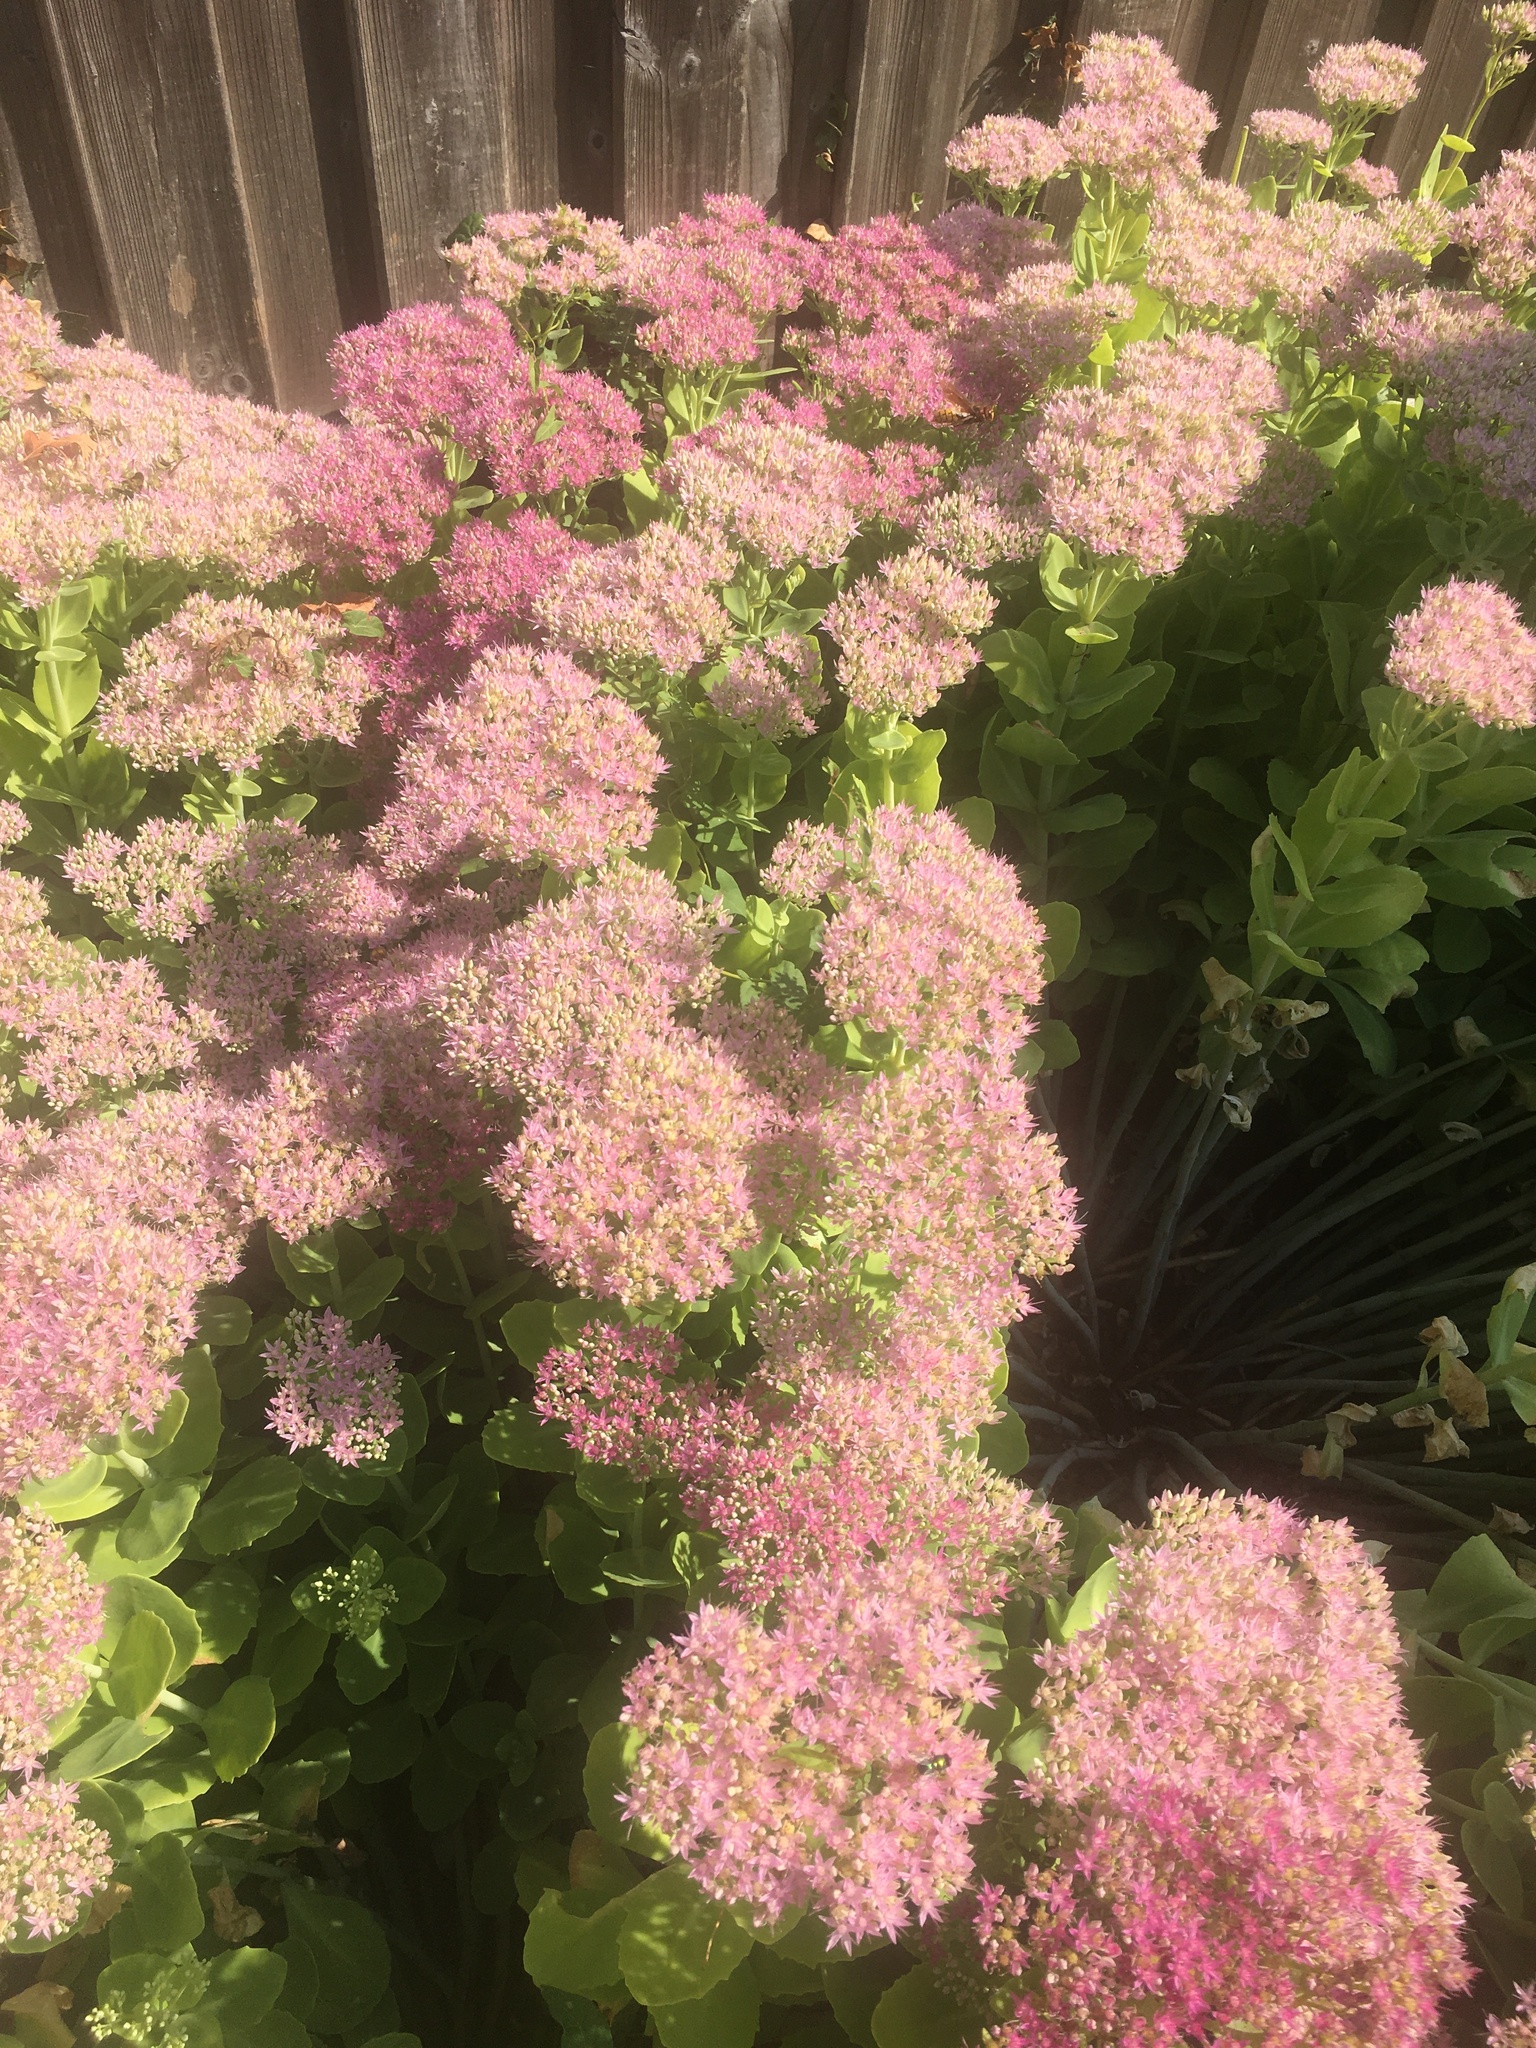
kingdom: Animalia
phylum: Arthropoda
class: Insecta
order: Hymenoptera
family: Vespidae
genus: Vespa
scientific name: Vespa crabro
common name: Hornet
